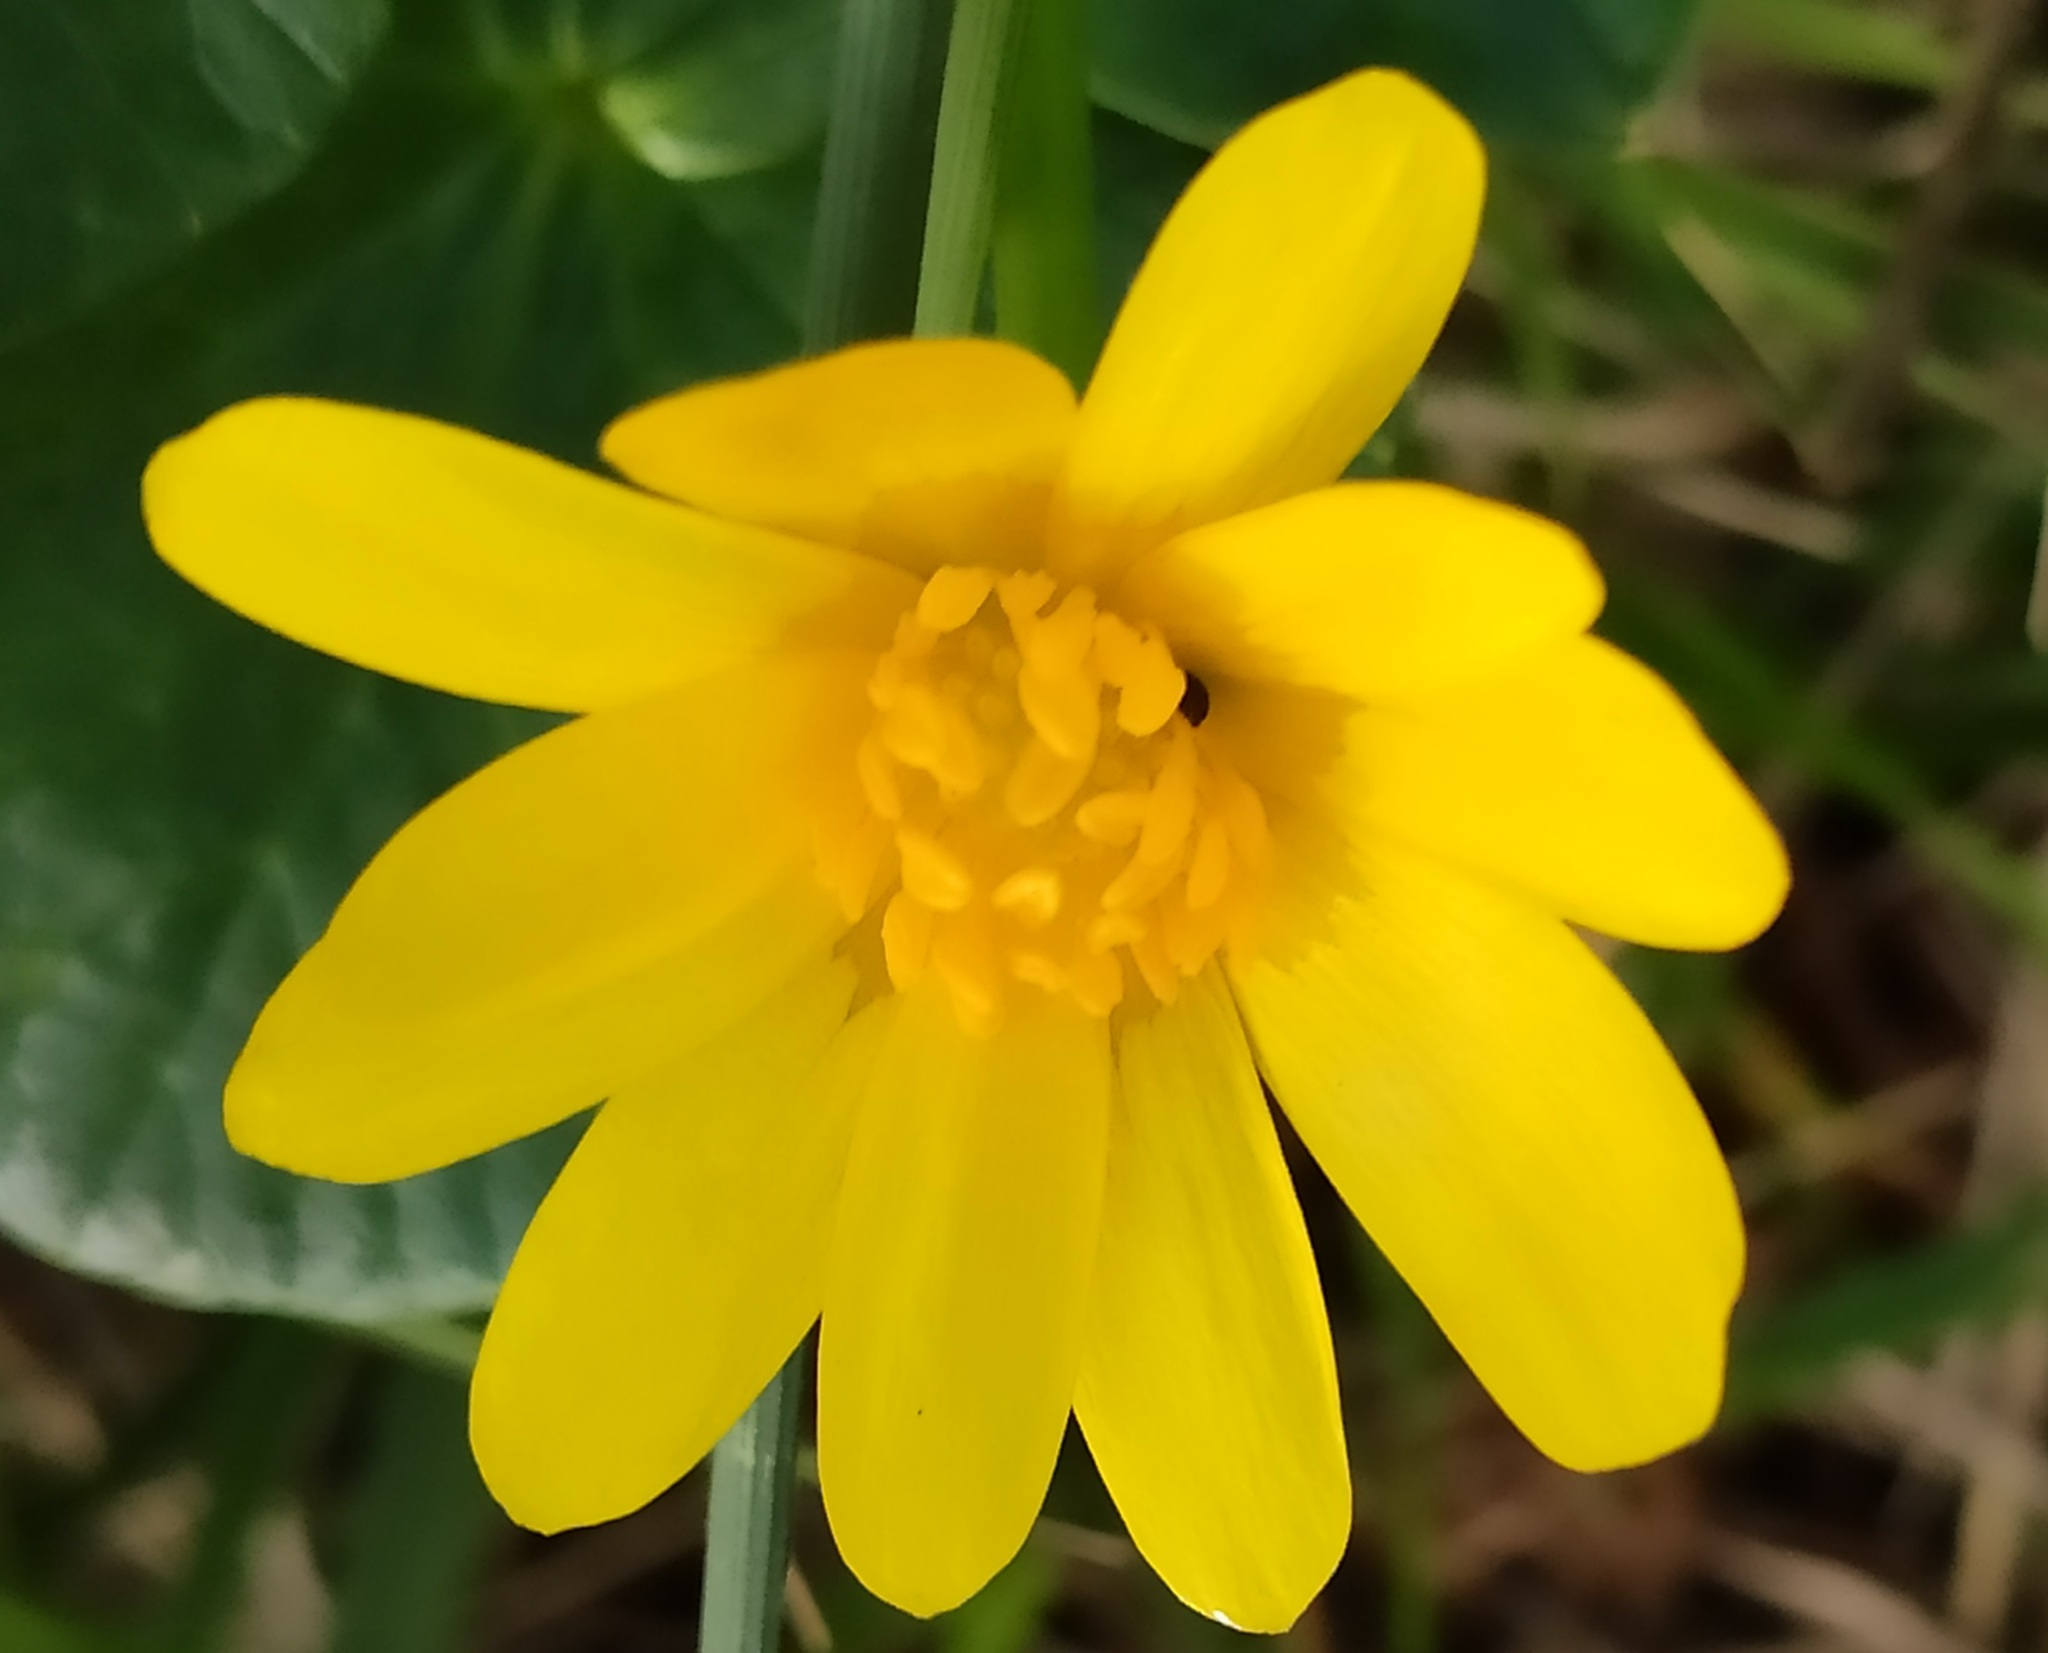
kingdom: Plantae
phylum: Tracheophyta
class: Magnoliopsida
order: Ranunculales
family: Ranunculaceae
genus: Ficaria
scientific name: Ficaria verna
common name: Lesser celandine
